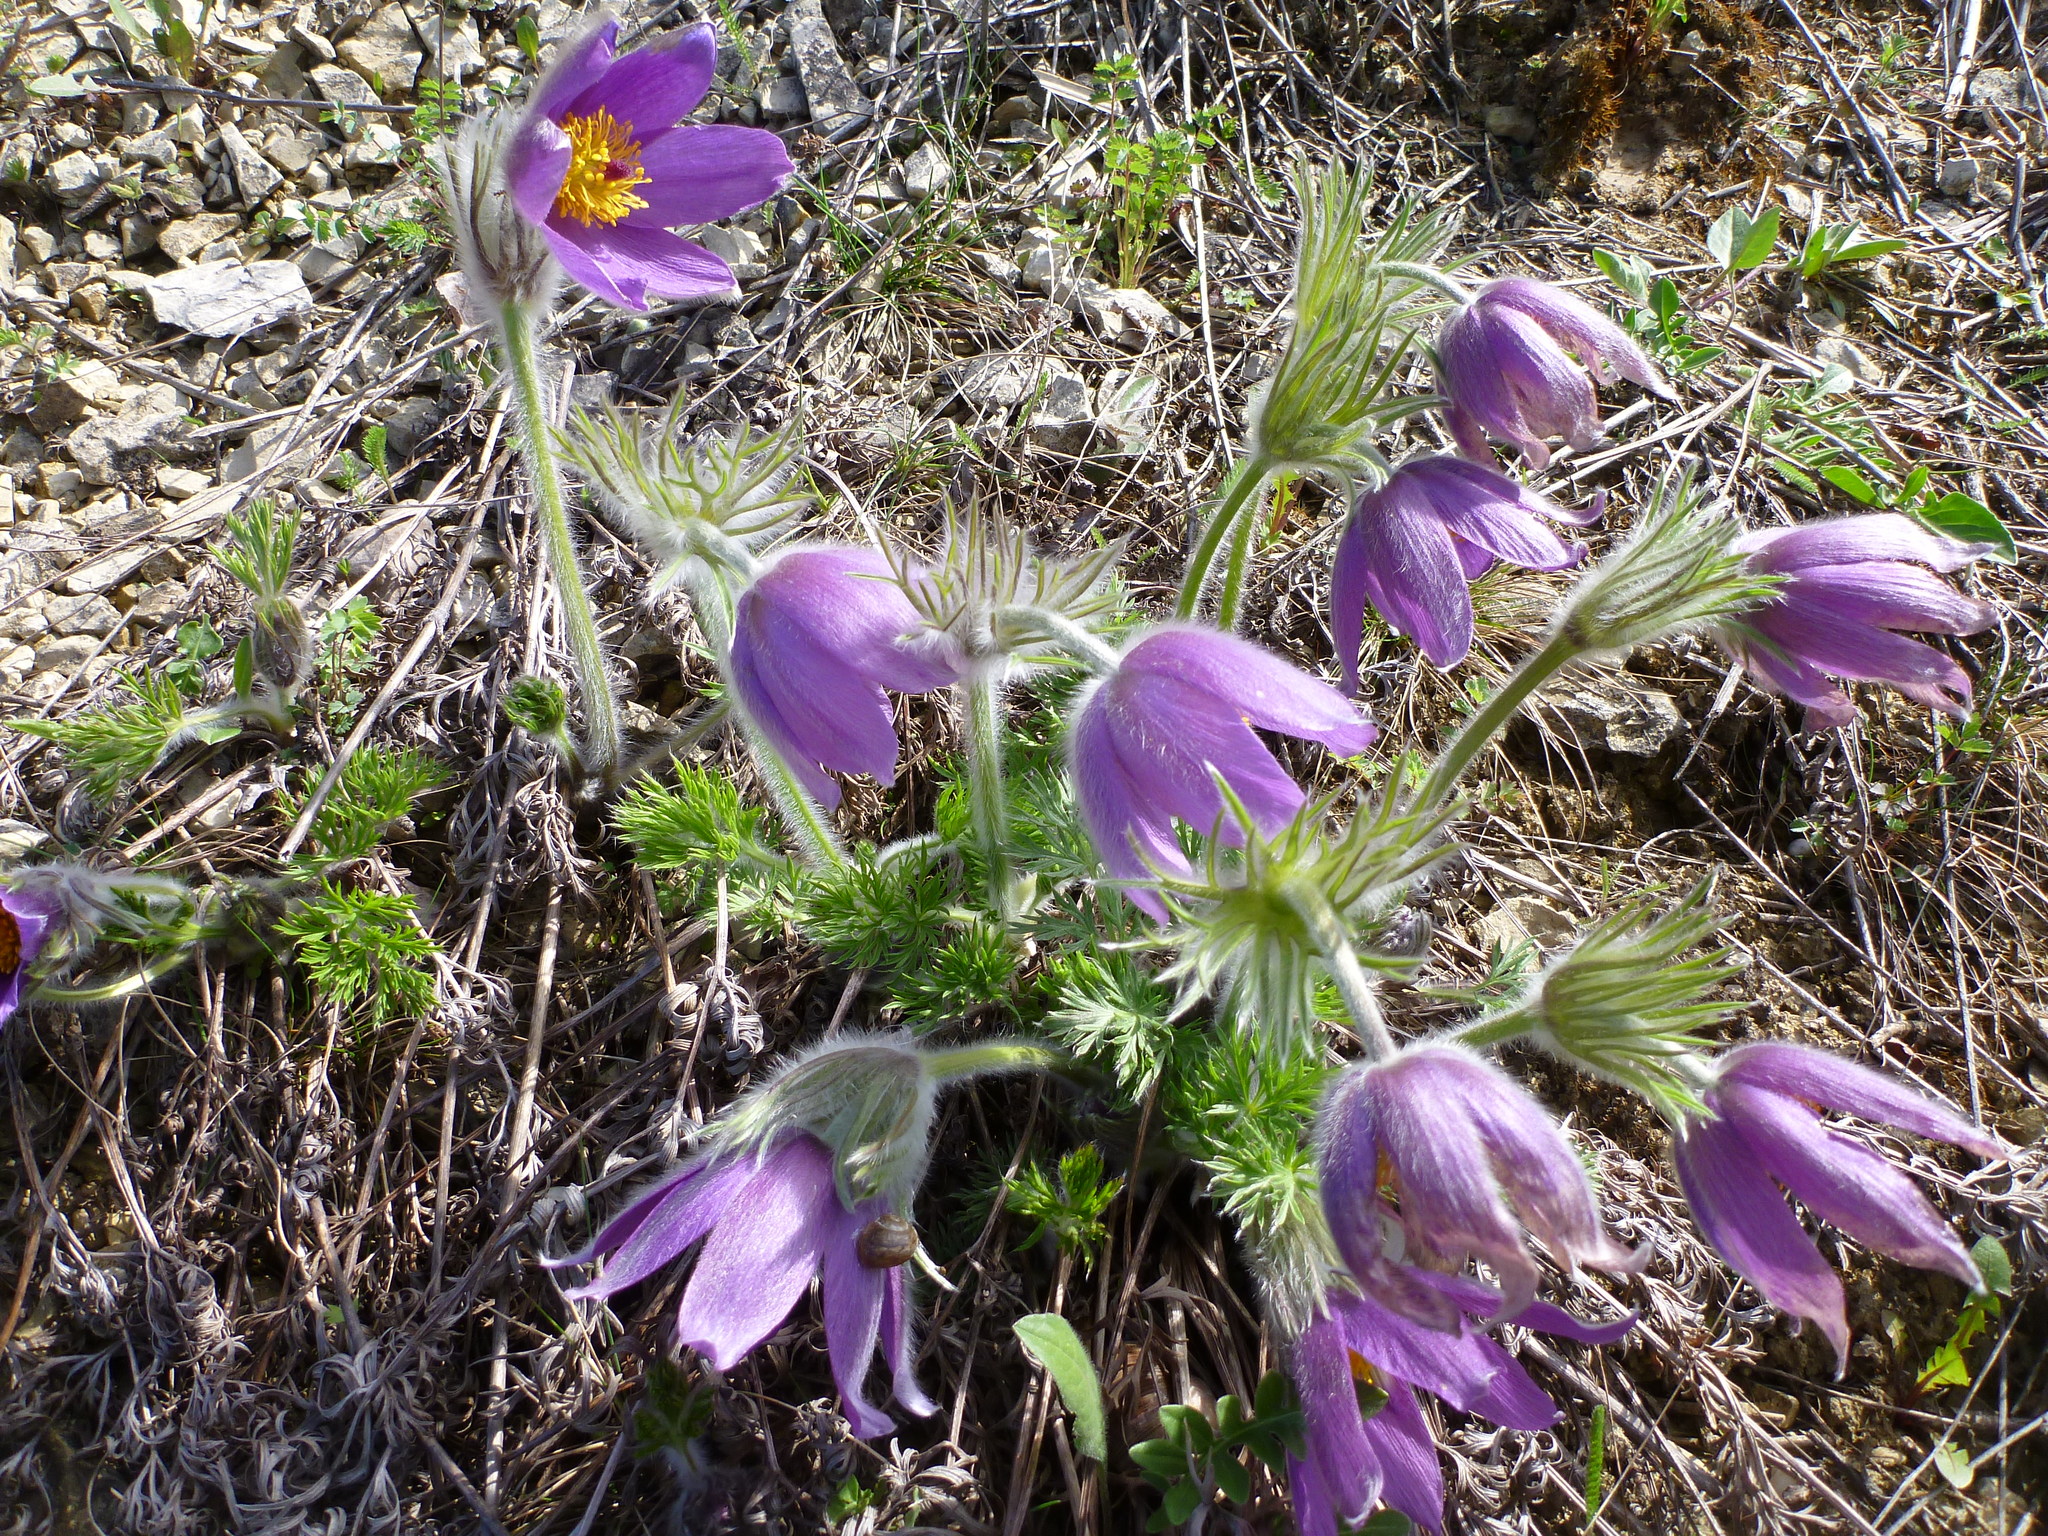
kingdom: Plantae
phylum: Tracheophyta
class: Magnoliopsida
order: Ranunculales
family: Ranunculaceae
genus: Pulsatilla
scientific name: Pulsatilla vulgaris
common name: Pasqueflower
